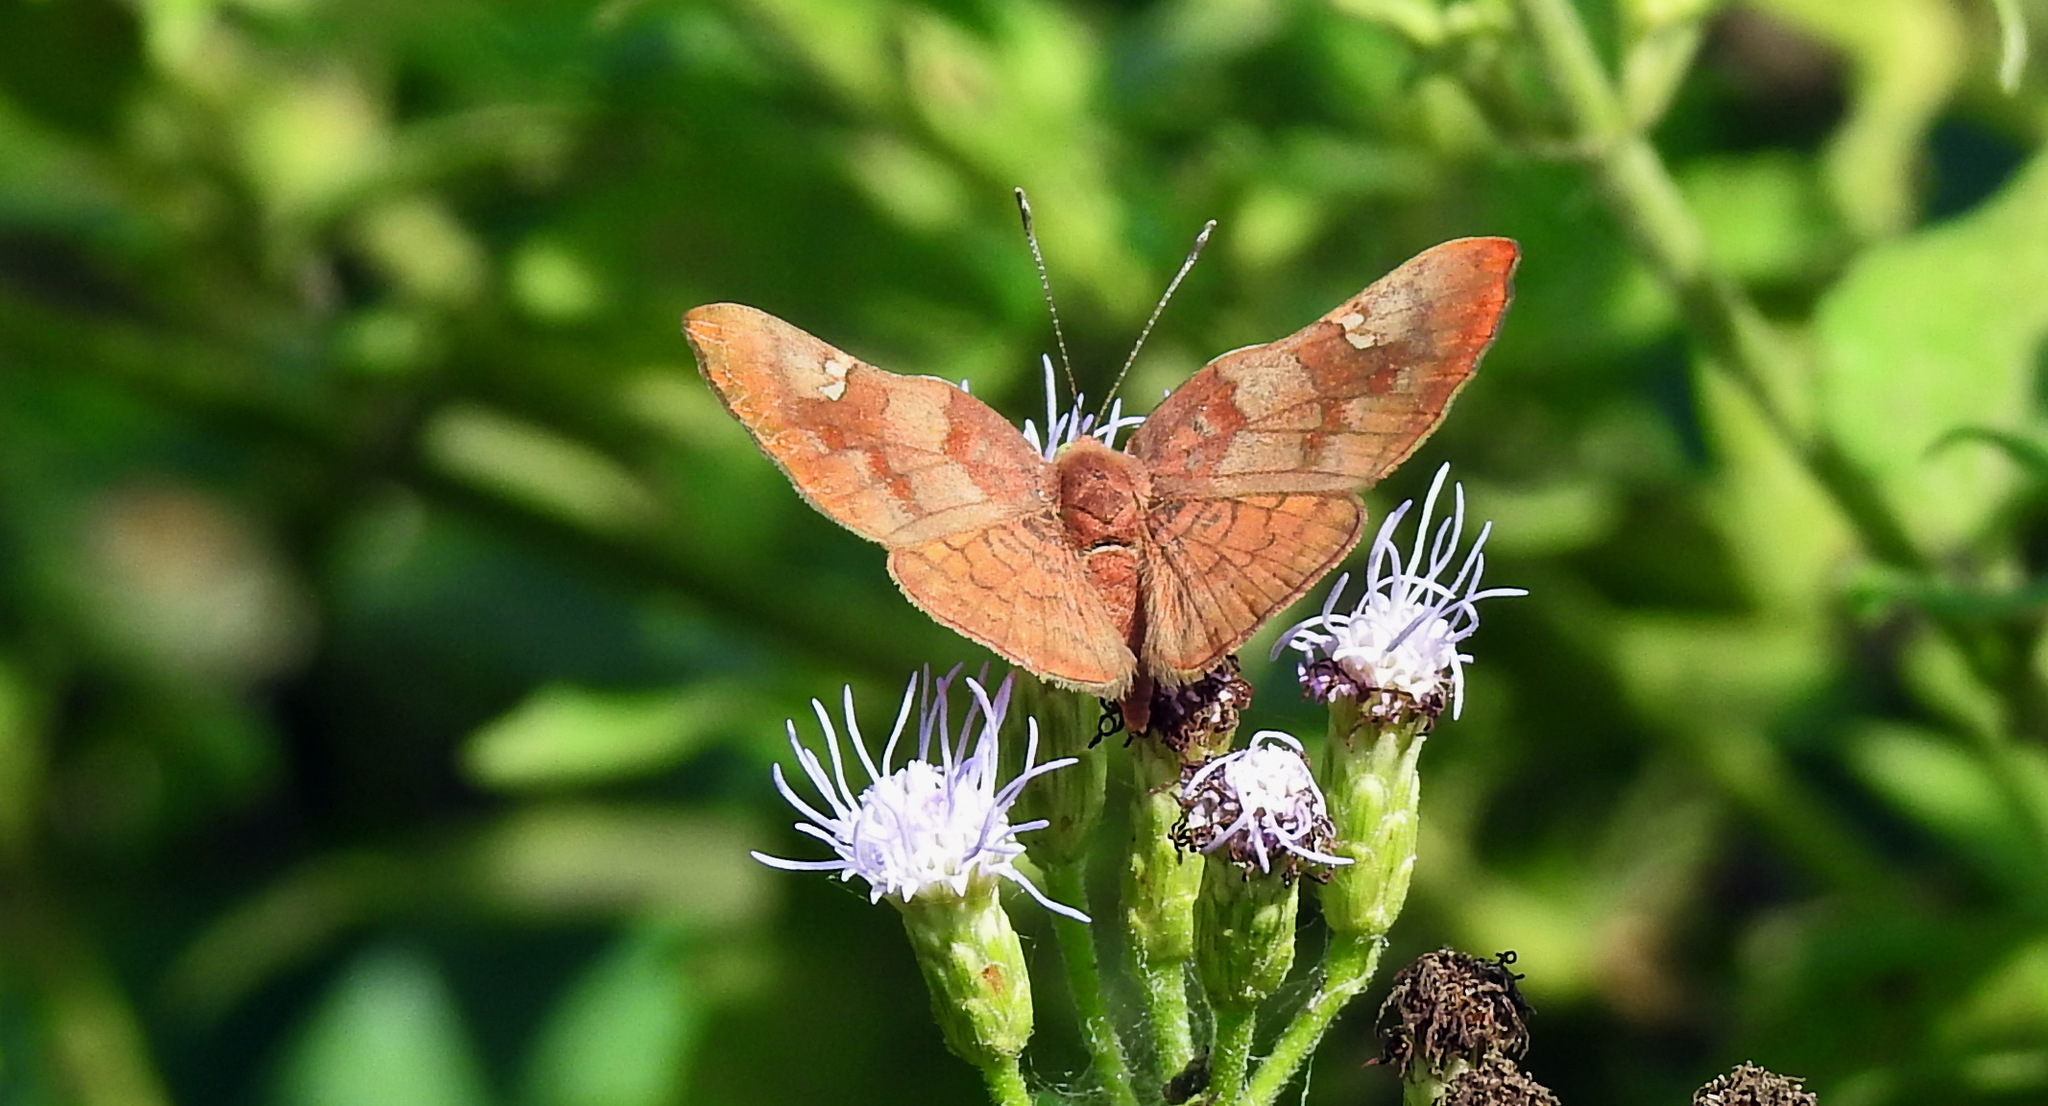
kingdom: Animalia
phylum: Arthropoda
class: Insecta
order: Lepidoptera
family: Riodinidae
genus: Curvie
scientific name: Curvie emesia
